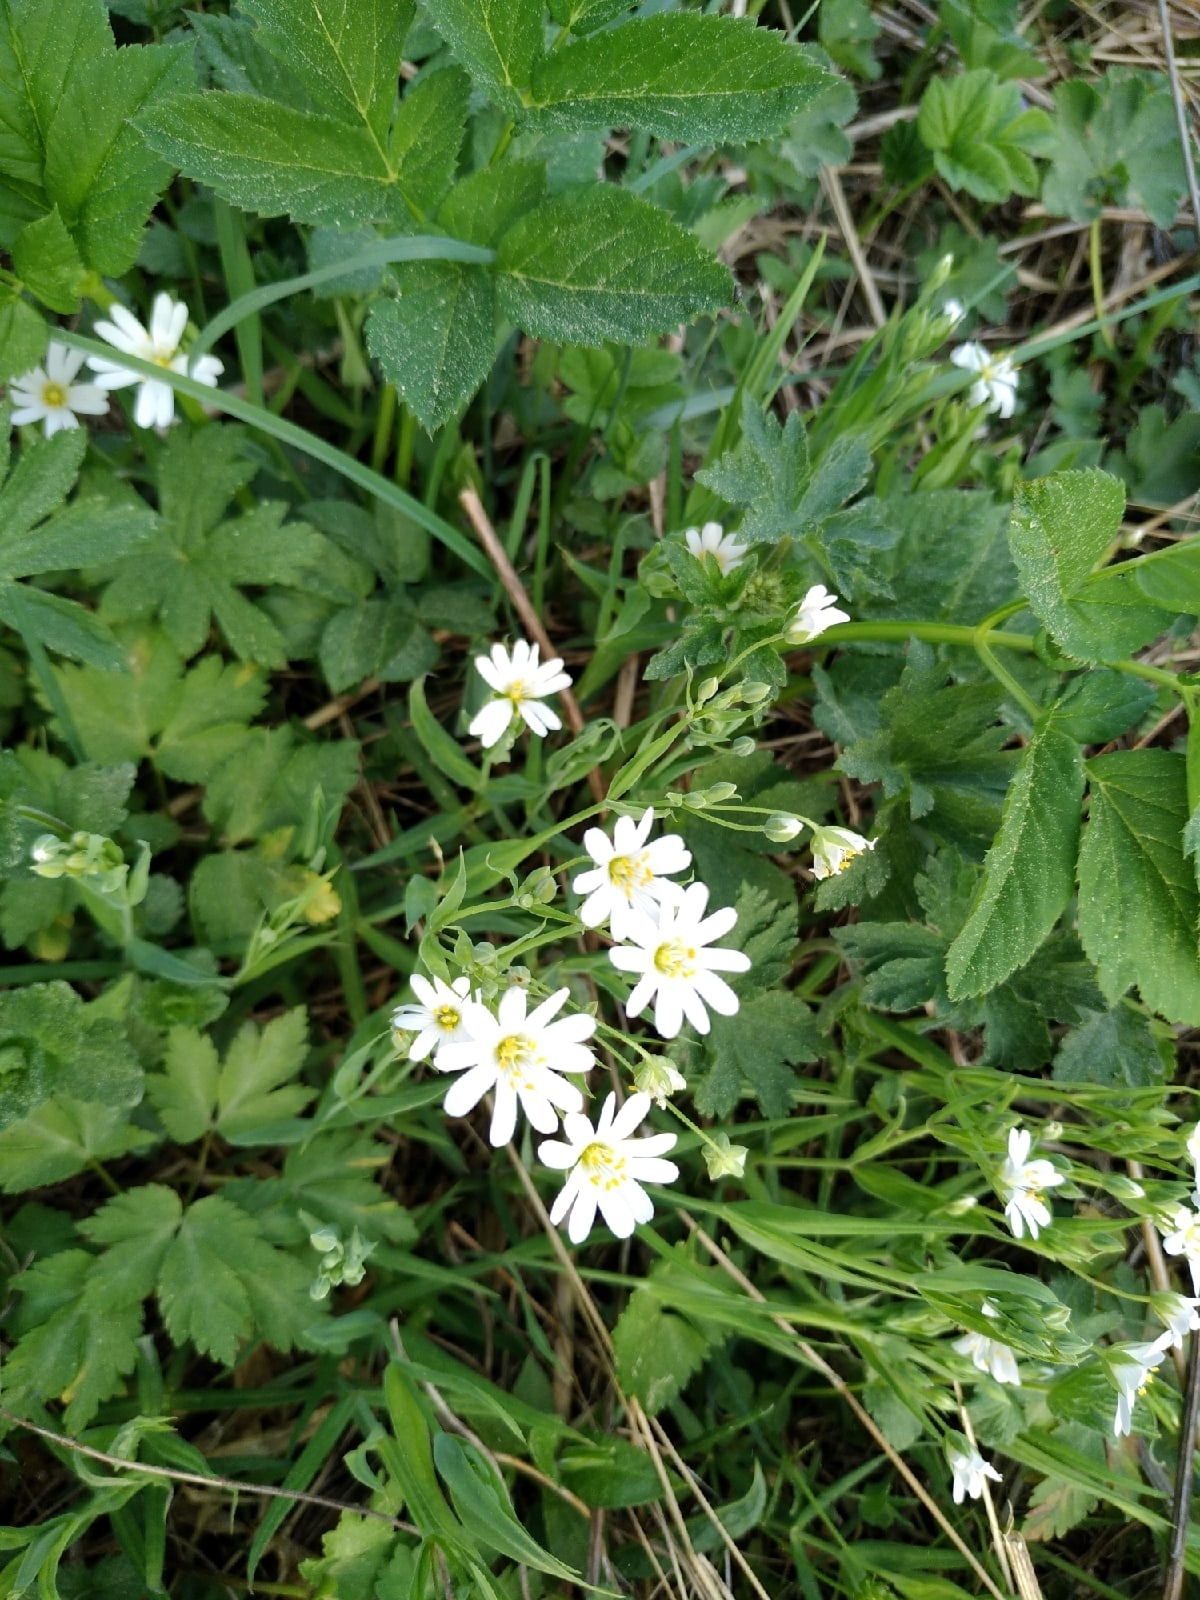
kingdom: Plantae
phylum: Tracheophyta
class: Magnoliopsida
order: Caryophyllales
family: Caryophyllaceae
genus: Rabelera
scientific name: Rabelera holostea
